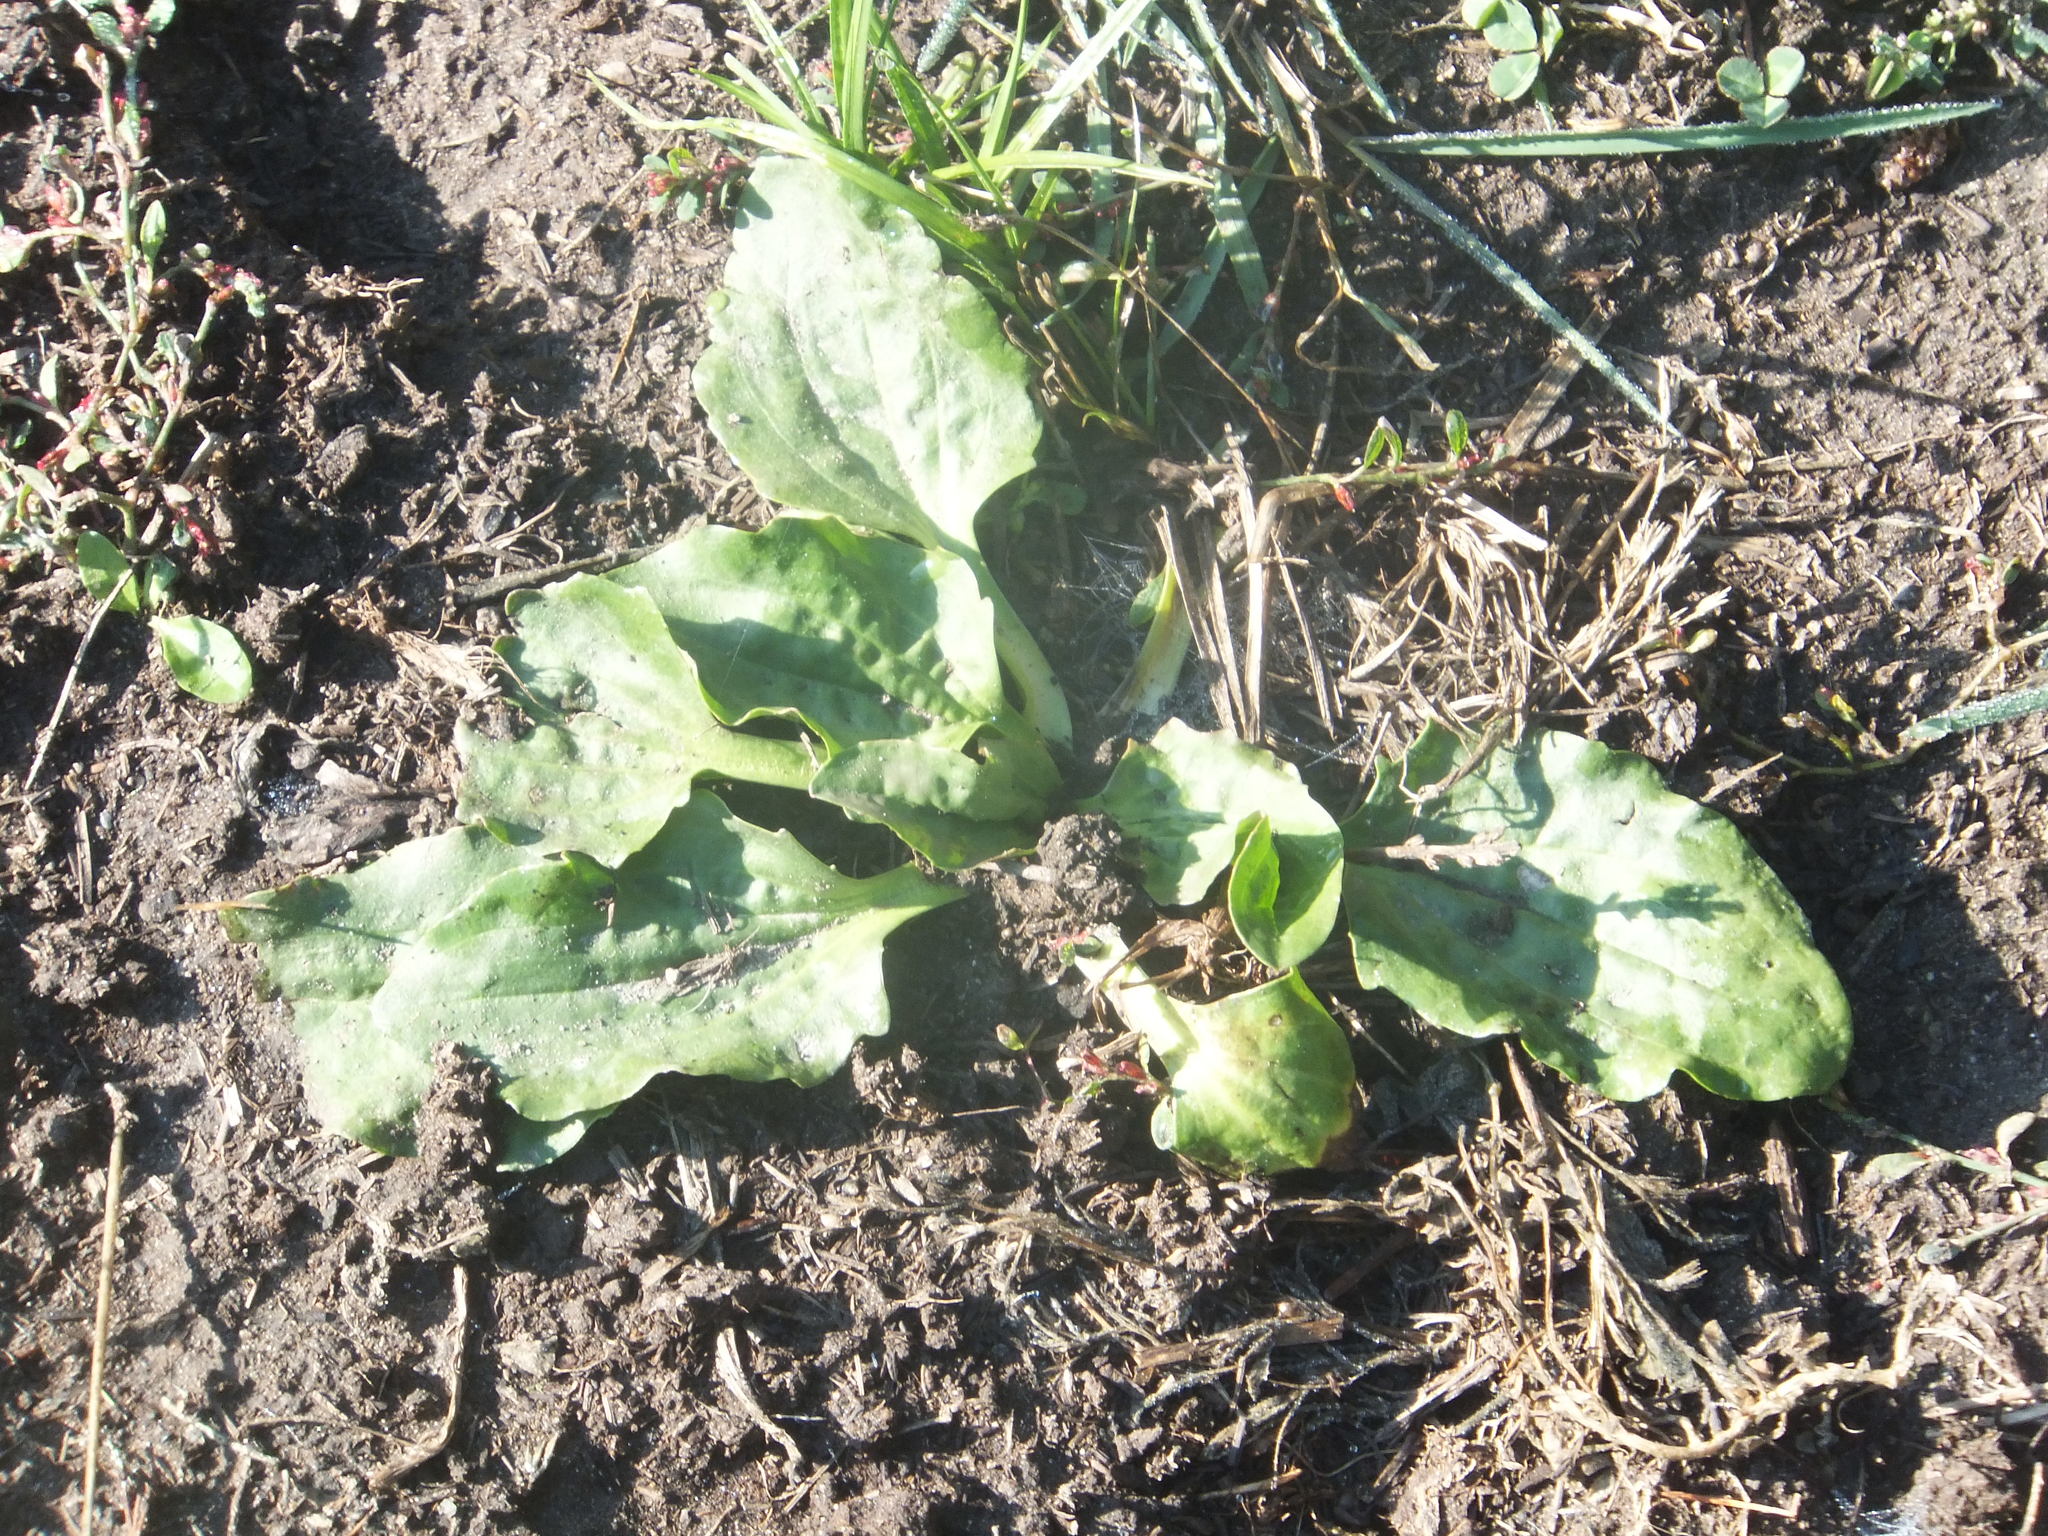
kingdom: Plantae
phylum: Tracheophyta
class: Magnoliopsida
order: Lamiales
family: Plantaginaceae
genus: Plantago
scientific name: Plantago major
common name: Common plantain
